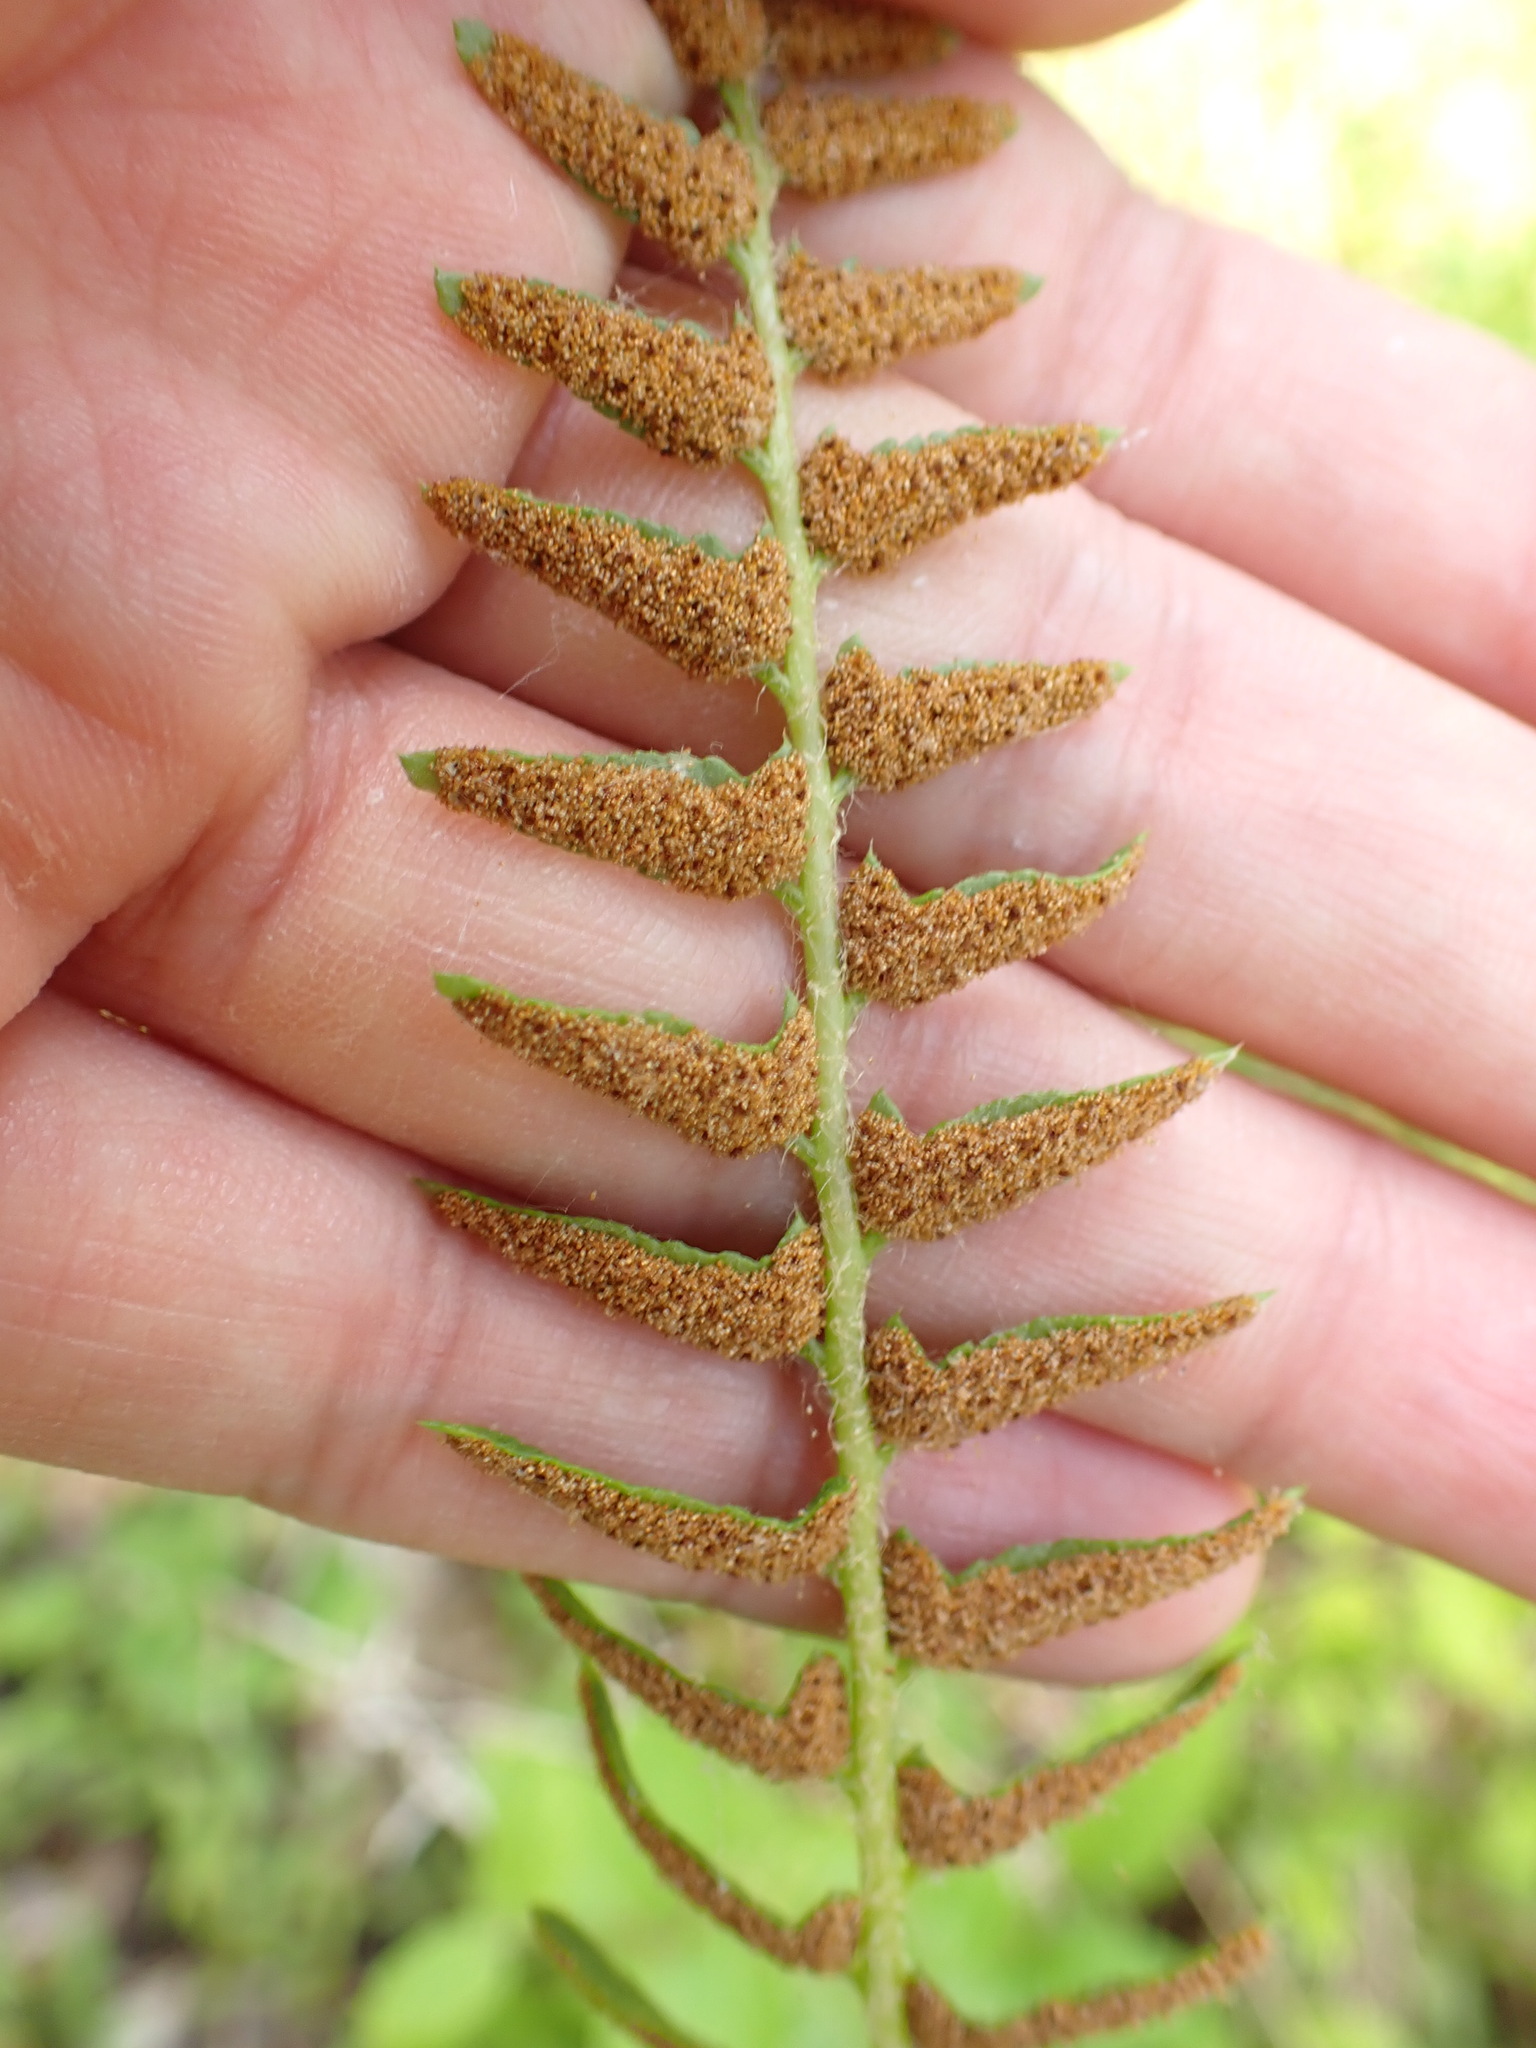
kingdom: Plantae
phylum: Tracheophyta
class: Polypodiopsida
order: Polypodiales
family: Dryopteridaceae
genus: Polystichum
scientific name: Polystichum acrostichoides
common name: Christmas fern
